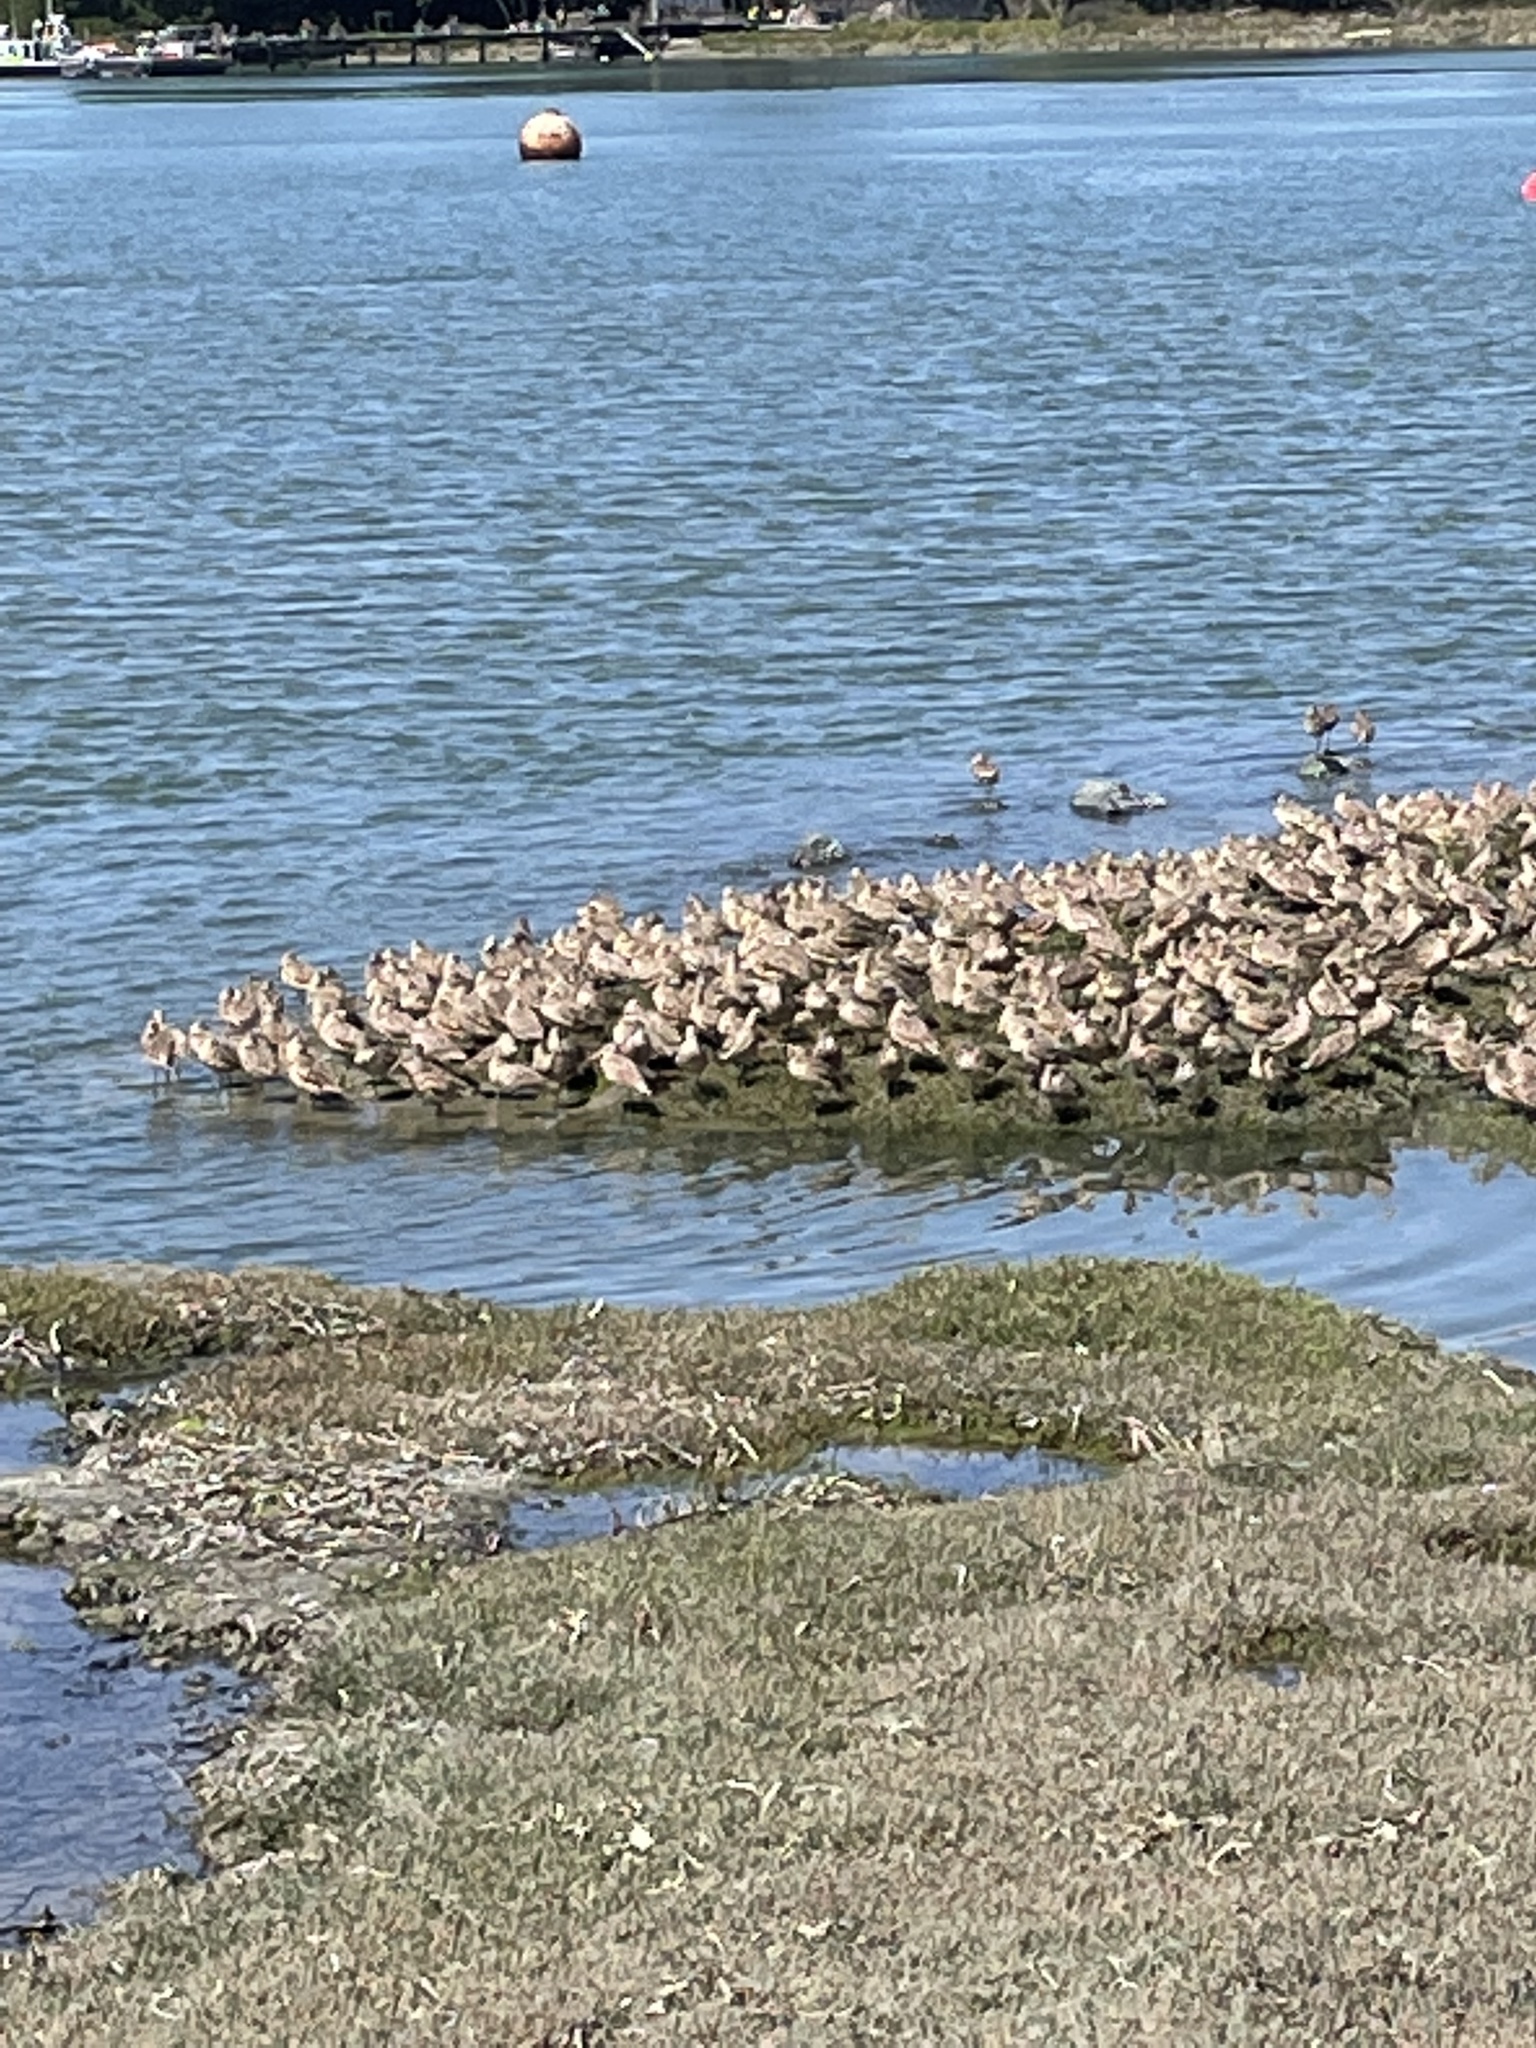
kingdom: Animalia
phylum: Chordata
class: Aves
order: Charadriiformes
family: Scolopacidae
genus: Limosa
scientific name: Limosa fedoa
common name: Marbled godwit
